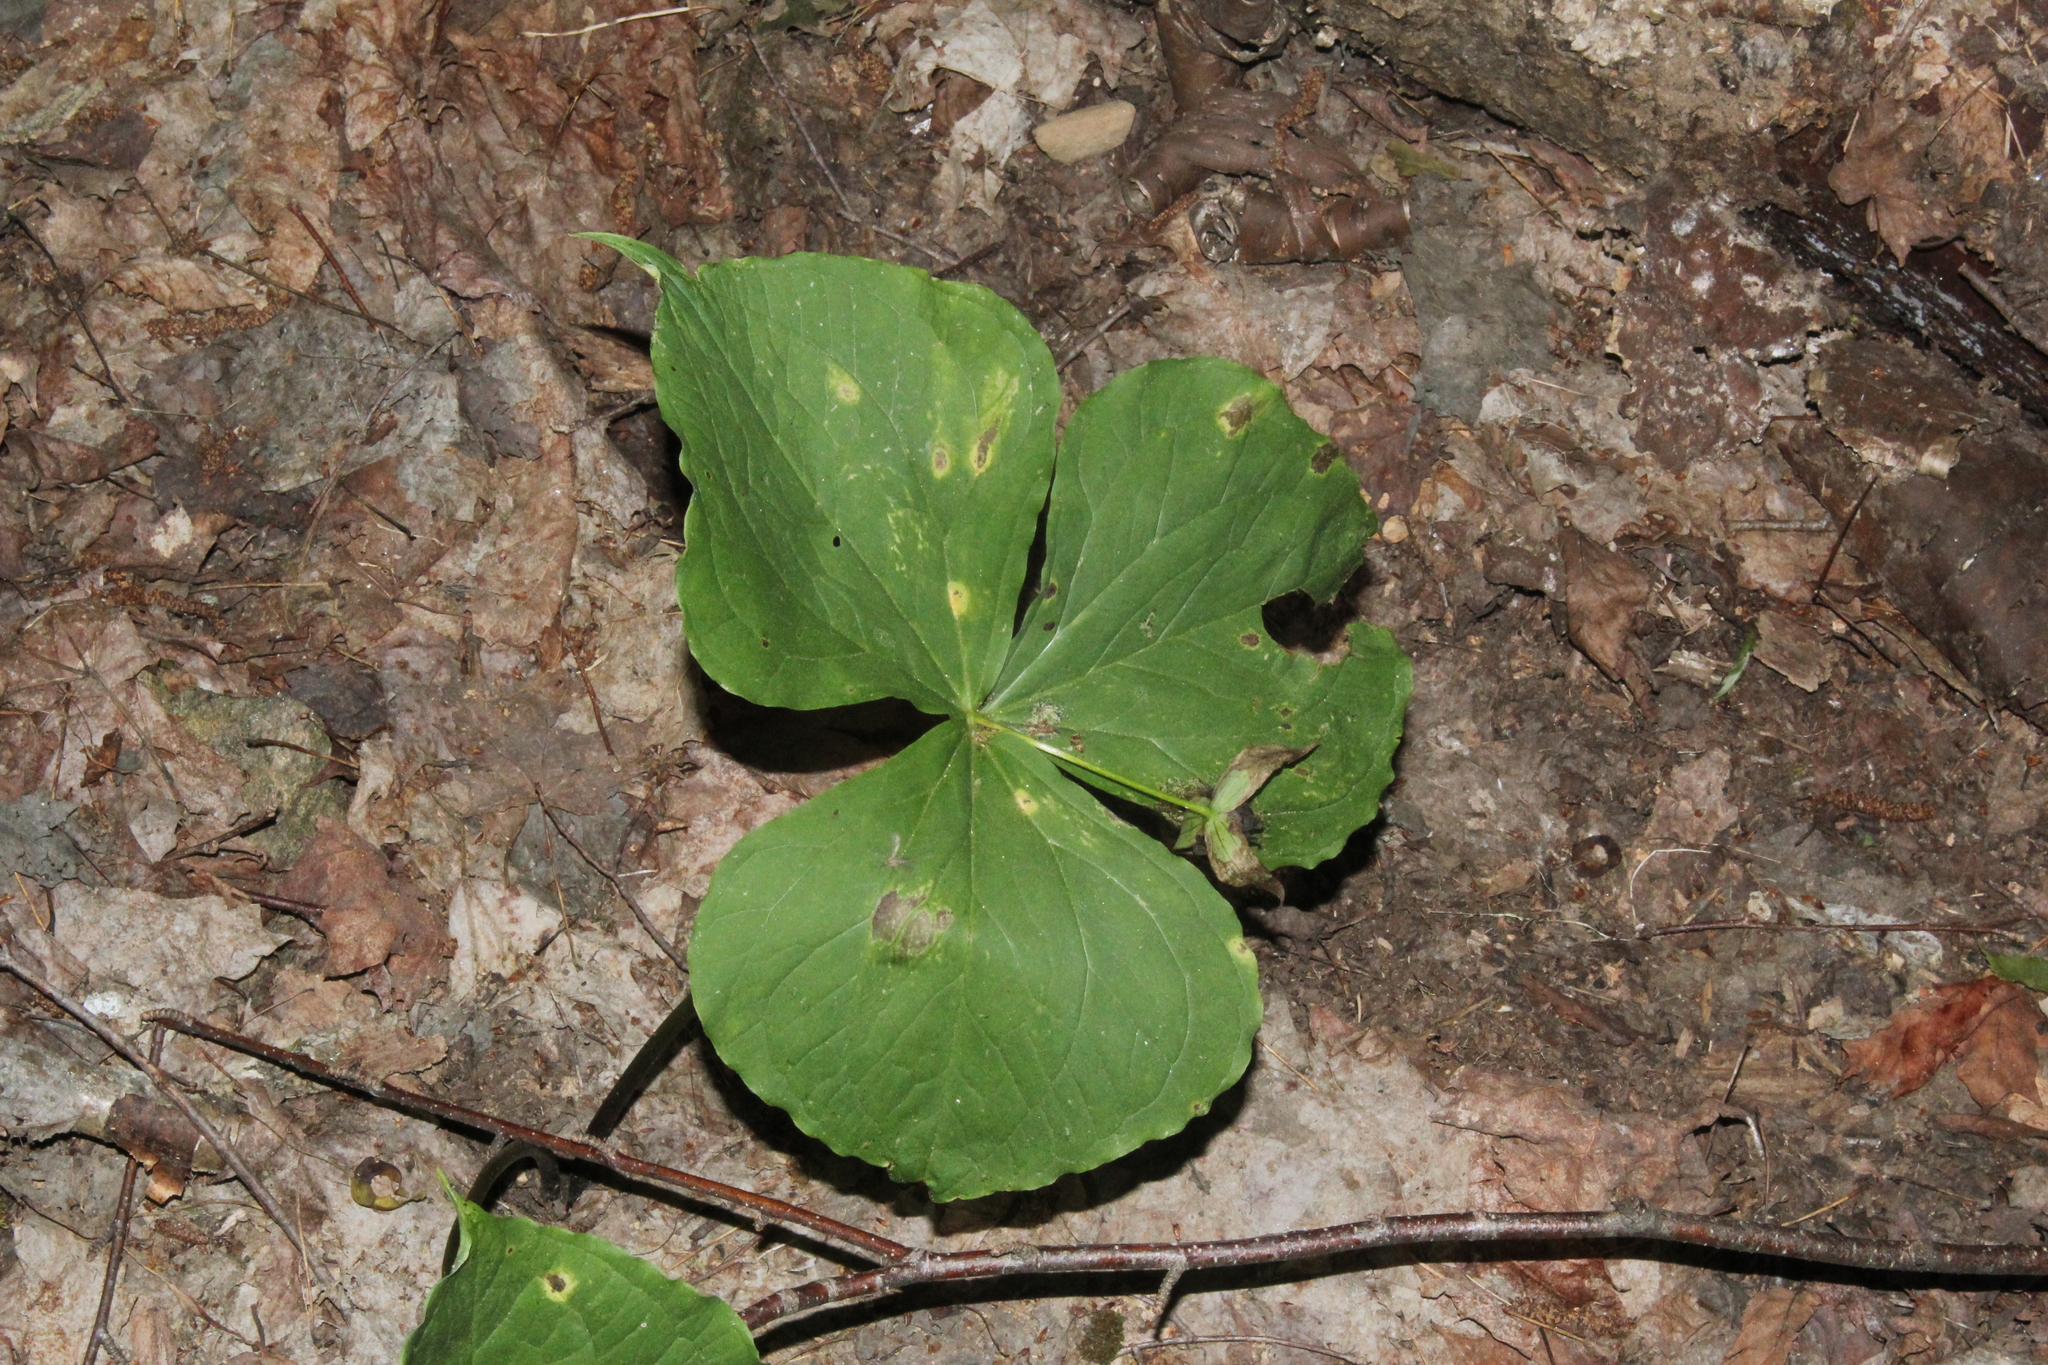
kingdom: Plantae
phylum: Tracheophyta
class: Liliopsida
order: Liliales
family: Melanthiaceae
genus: Trillium
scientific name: Trillium erectum
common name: Purple trillium
